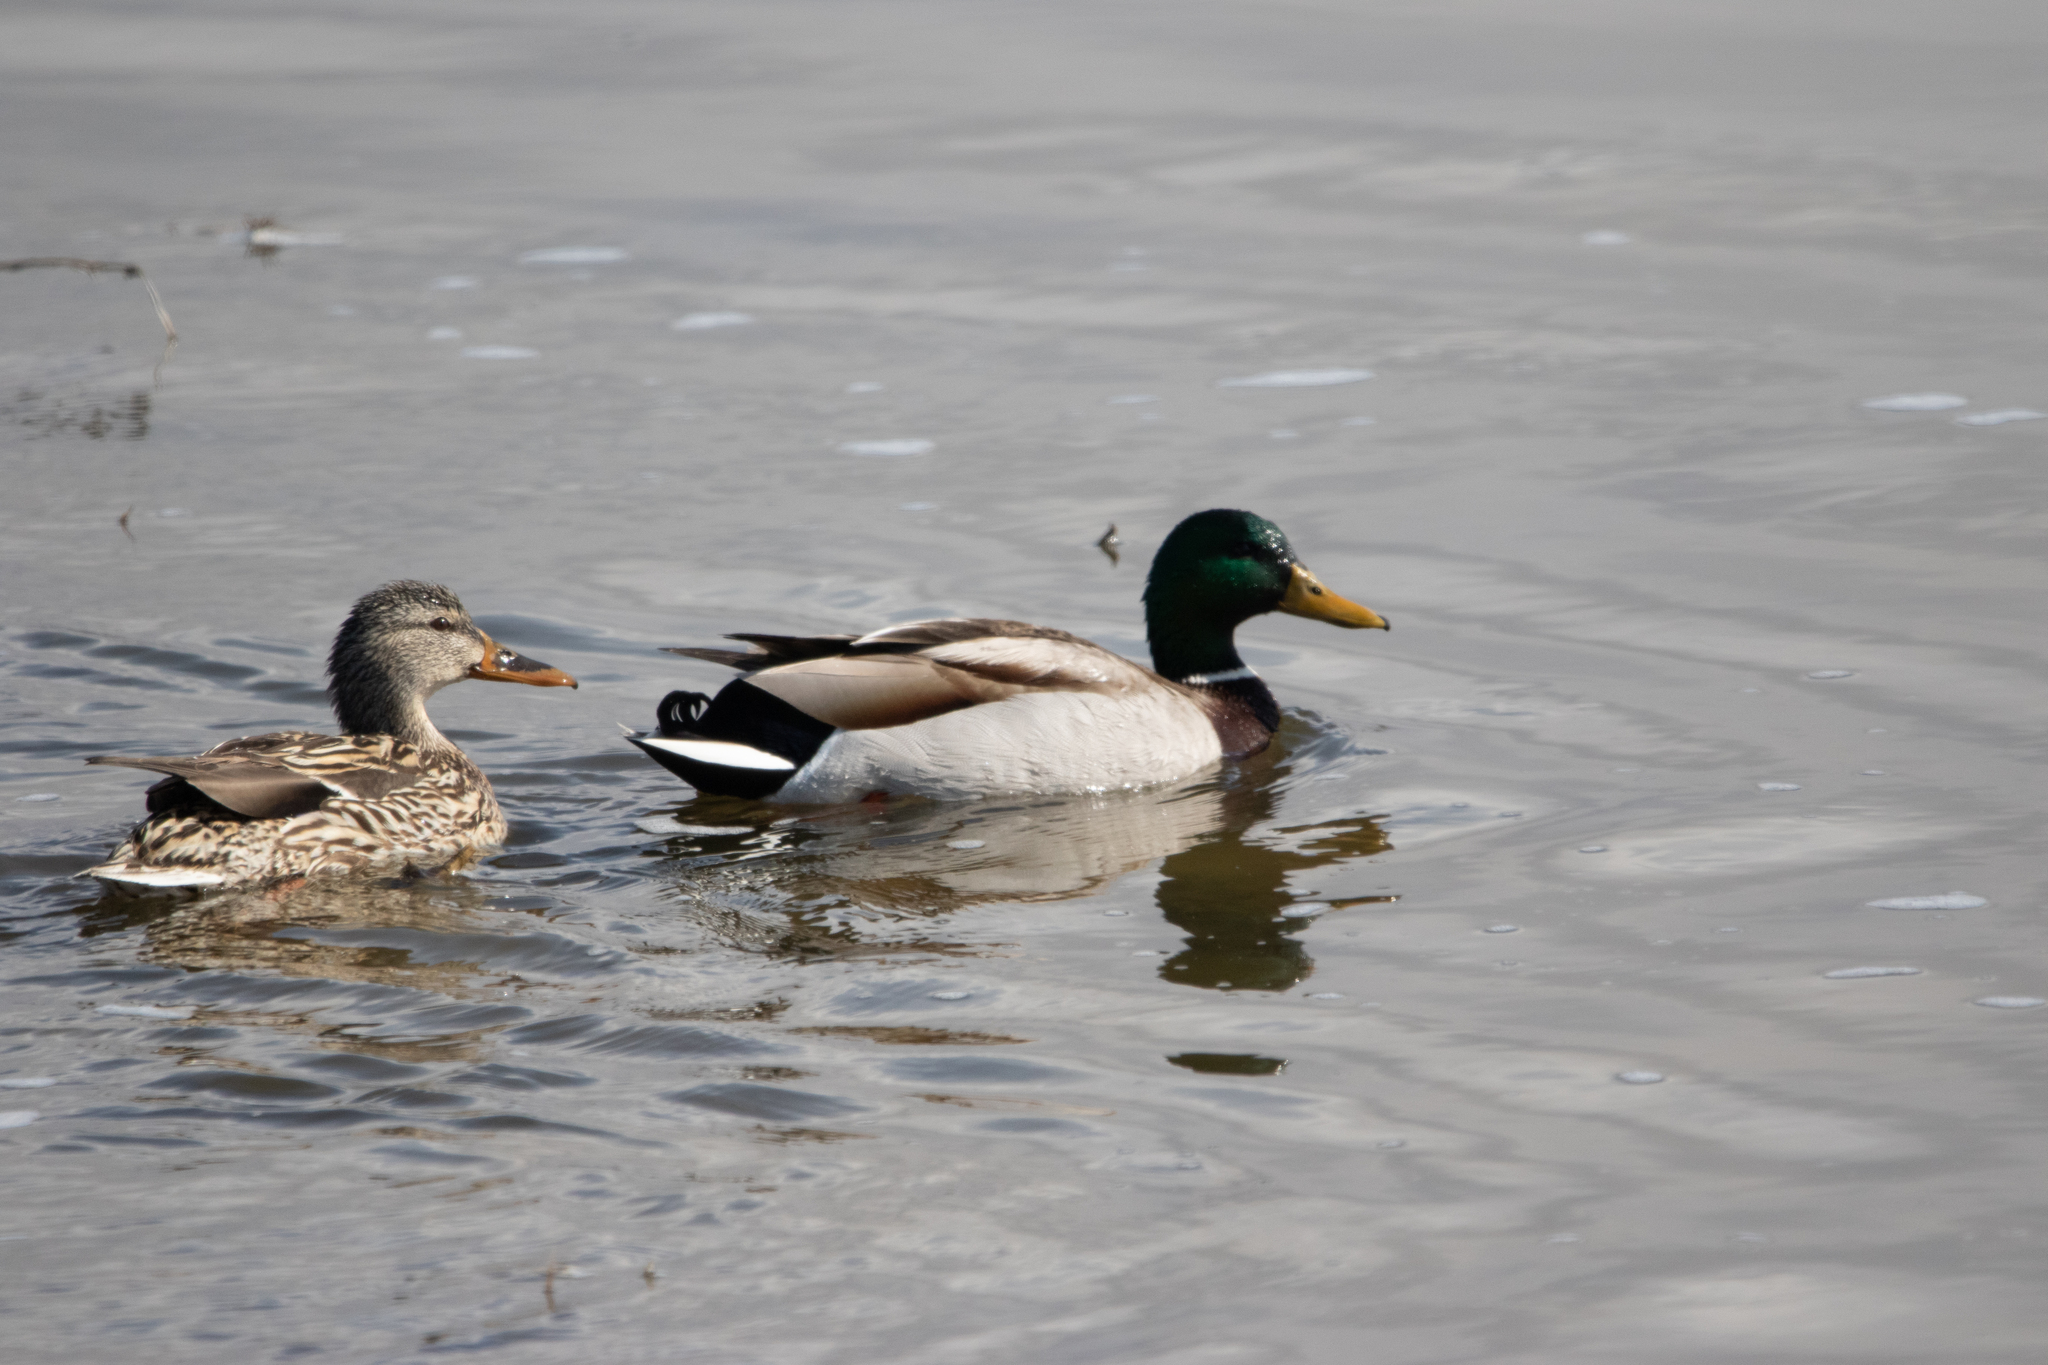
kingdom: Animalia
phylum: Chordata
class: Aves
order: Anseriformes
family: Anatidae
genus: Anas
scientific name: Anas platyrhynchos
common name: Mallard
